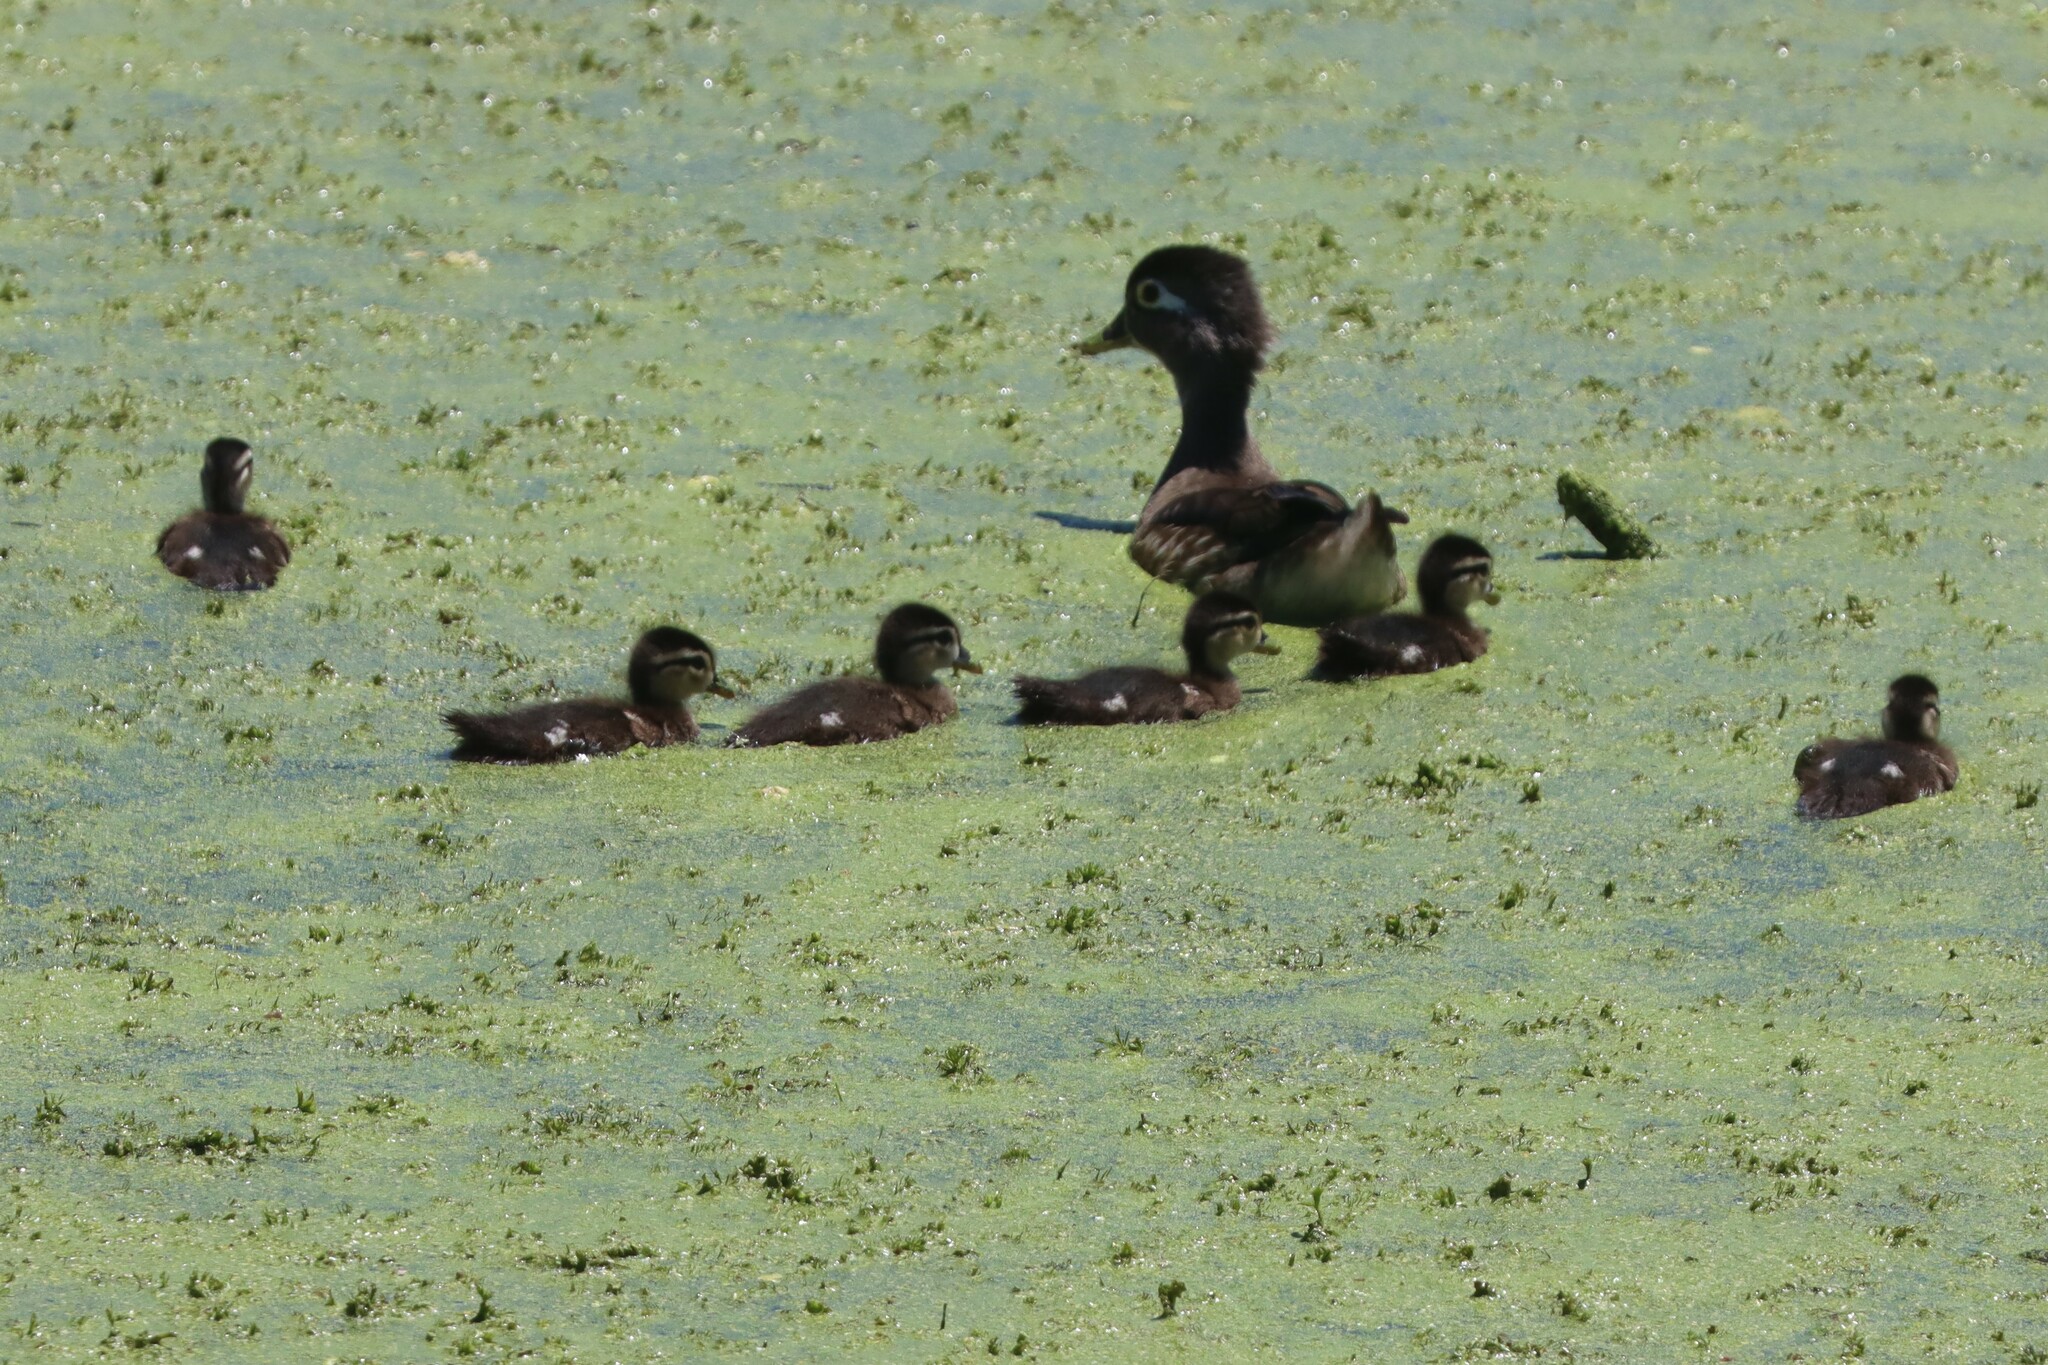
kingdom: Animalia
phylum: Chordata
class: Aves
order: Anseriformes
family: Anatidae
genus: Aix
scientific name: Aix sponsa
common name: Wood duck
